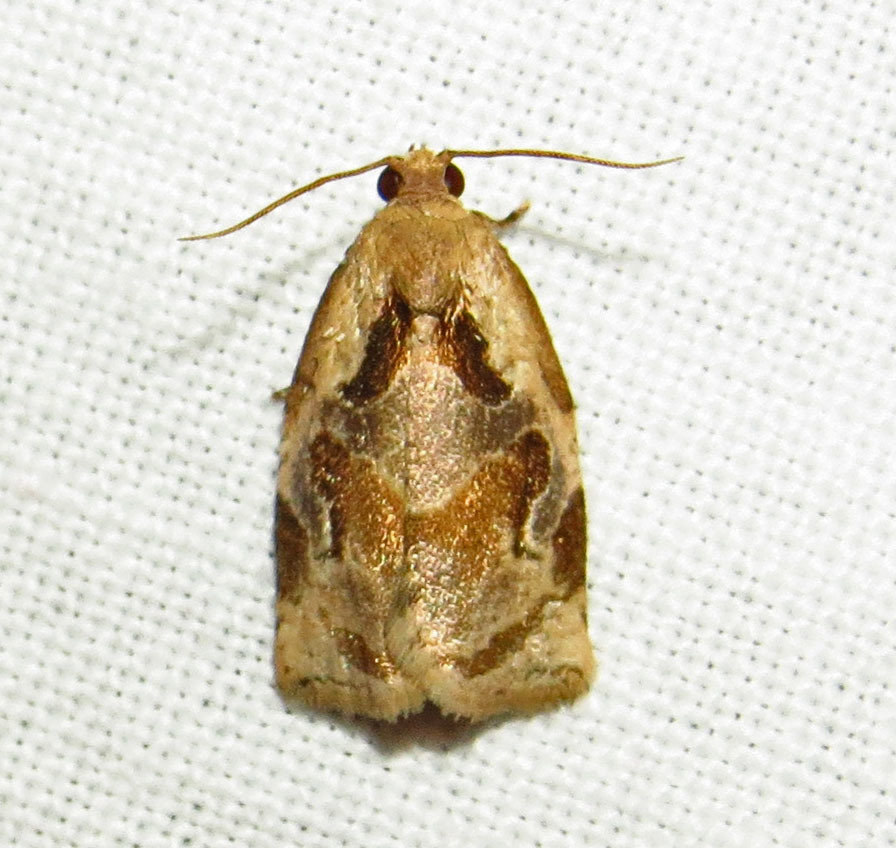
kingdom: Animalia
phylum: Arthropoda
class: Insecta
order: Lepidoptera
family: Tortricidae
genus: Archips
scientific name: Archips grisea
